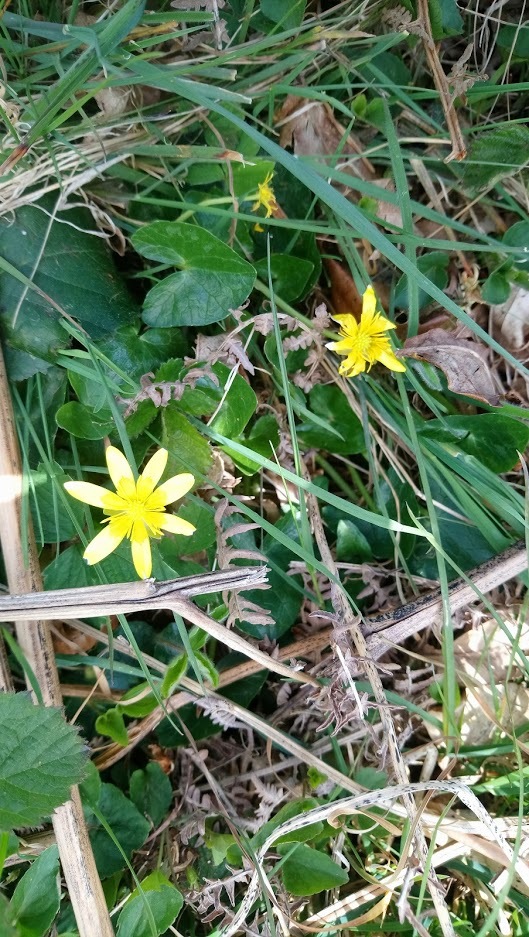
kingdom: Plantae
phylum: Tracheophyta
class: Magnoliopsida
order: Ranunculales
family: Ranunculaceae
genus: Ficaria
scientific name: Ficaria verna
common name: Lesser celandine
